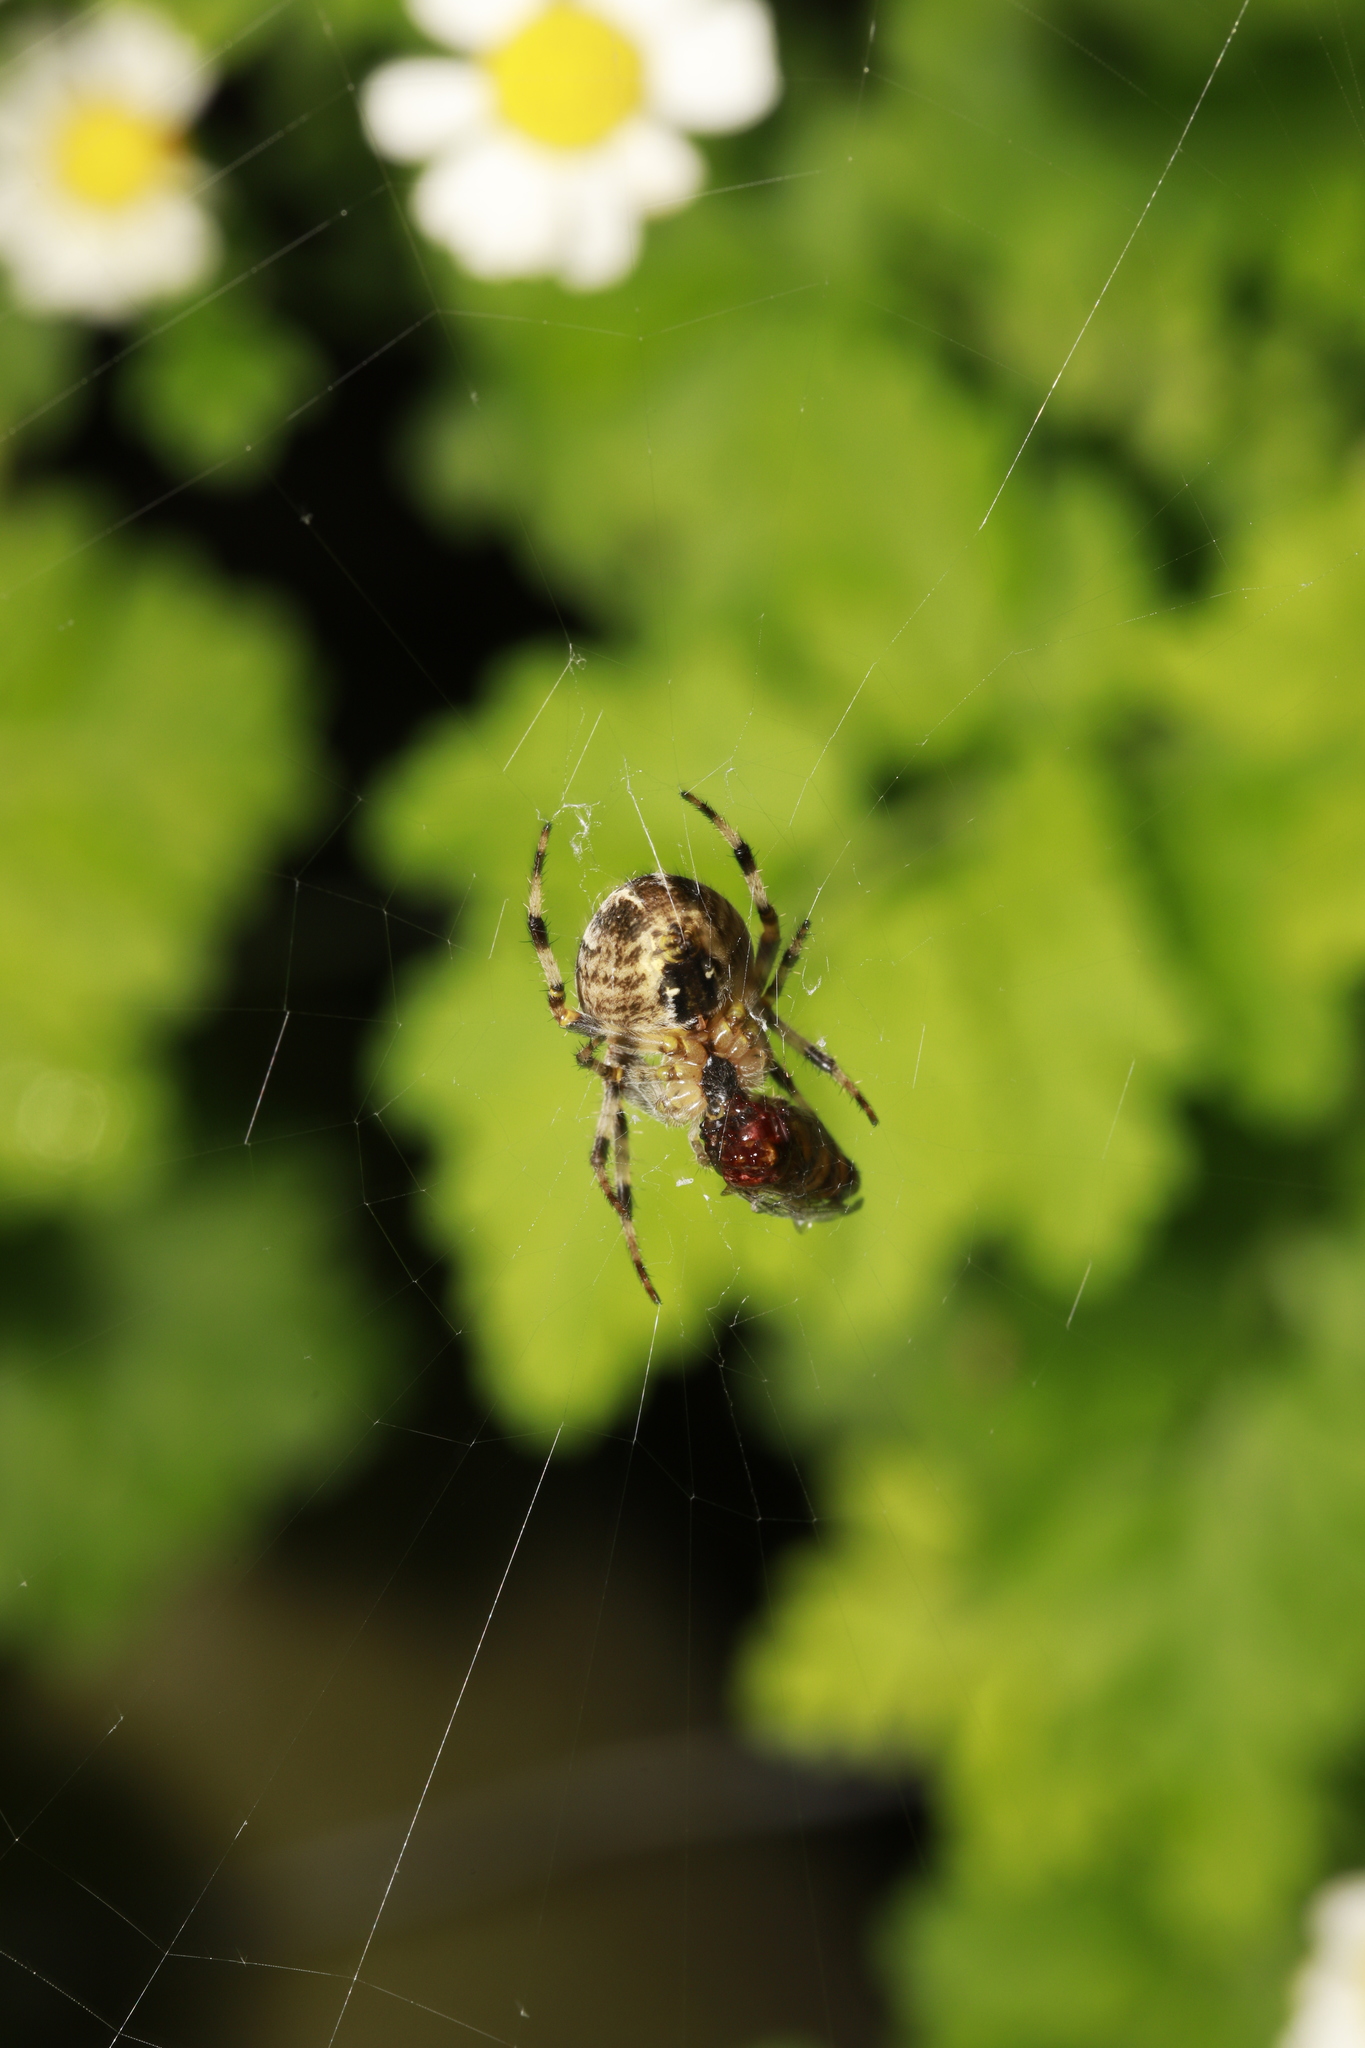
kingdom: Animalia
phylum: Arthropoda
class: Arachnida
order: Araneae
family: Araneidae
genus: Araneus
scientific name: Araneus diadematus
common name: Cross orbweaver
